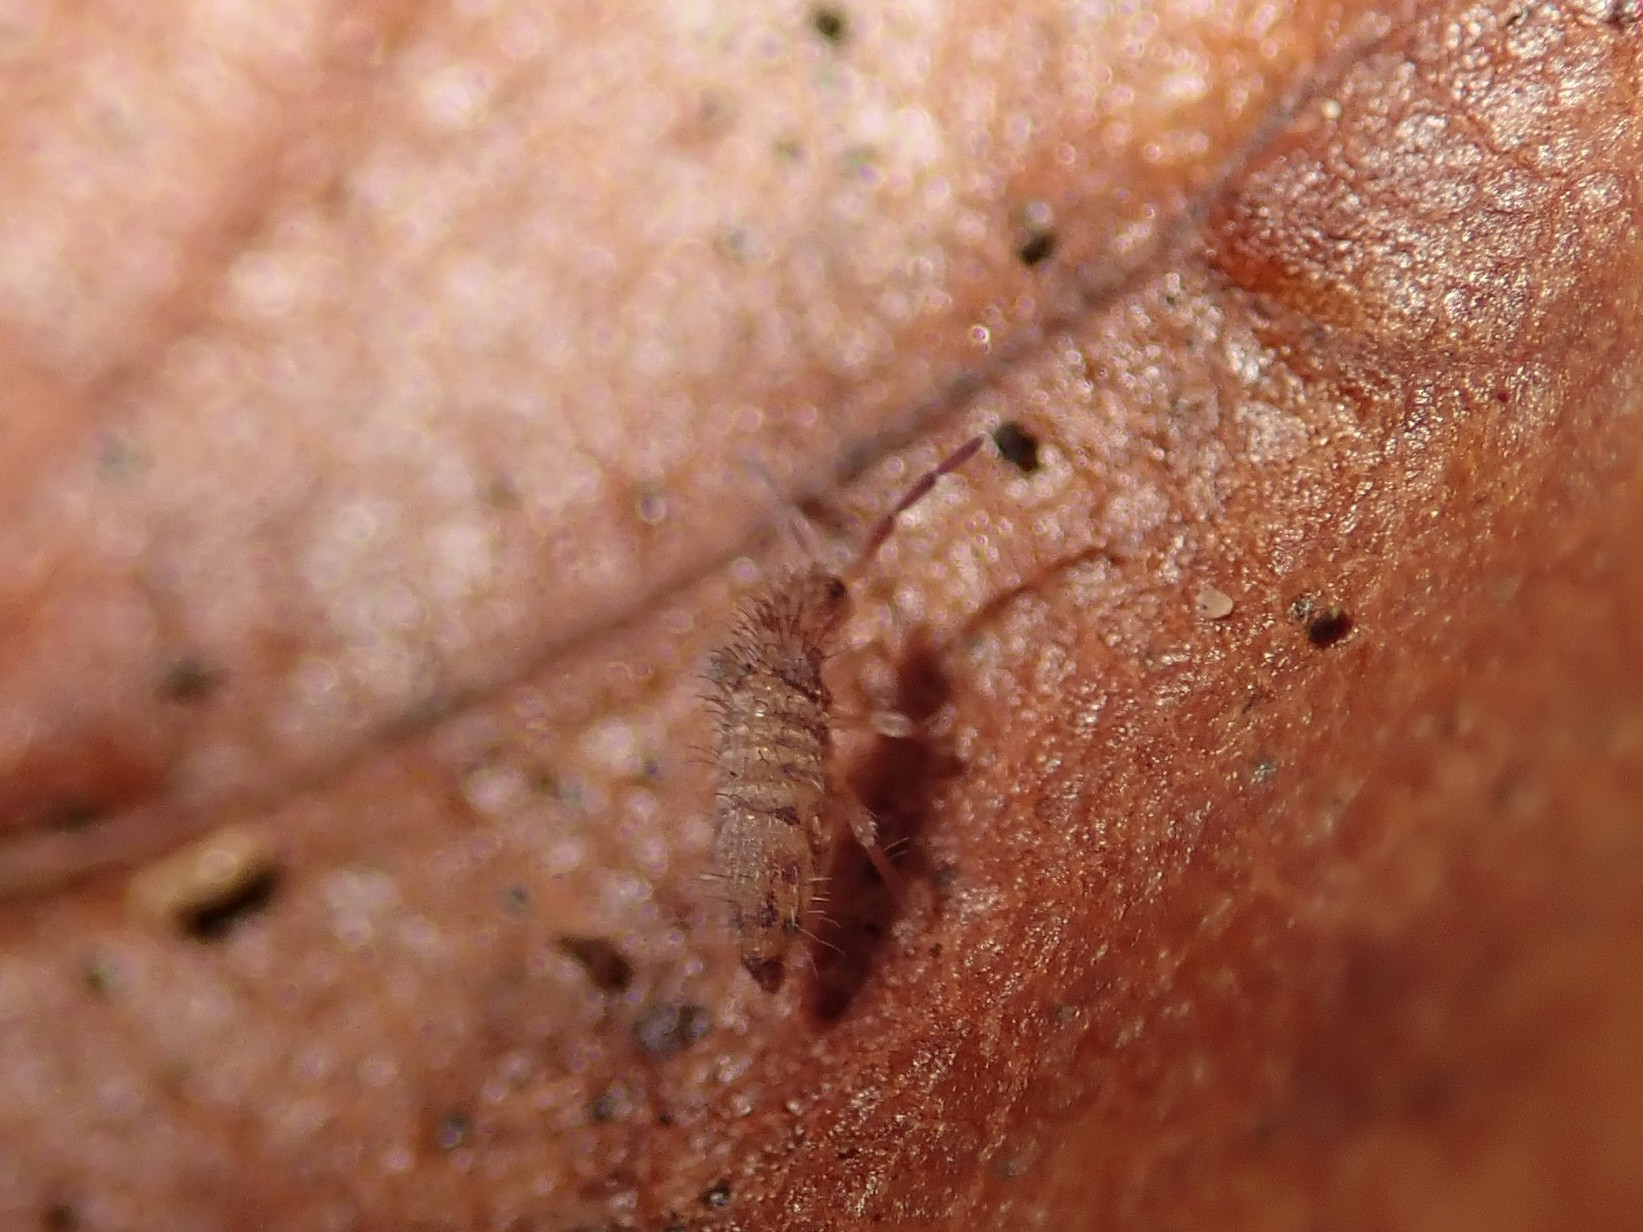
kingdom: Animalia
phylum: Arthropoda
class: Collembola
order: Entomobryomorpha
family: Entomobryidae
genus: Entomobrya
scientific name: Entomobrya multifasciata
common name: Springtail
